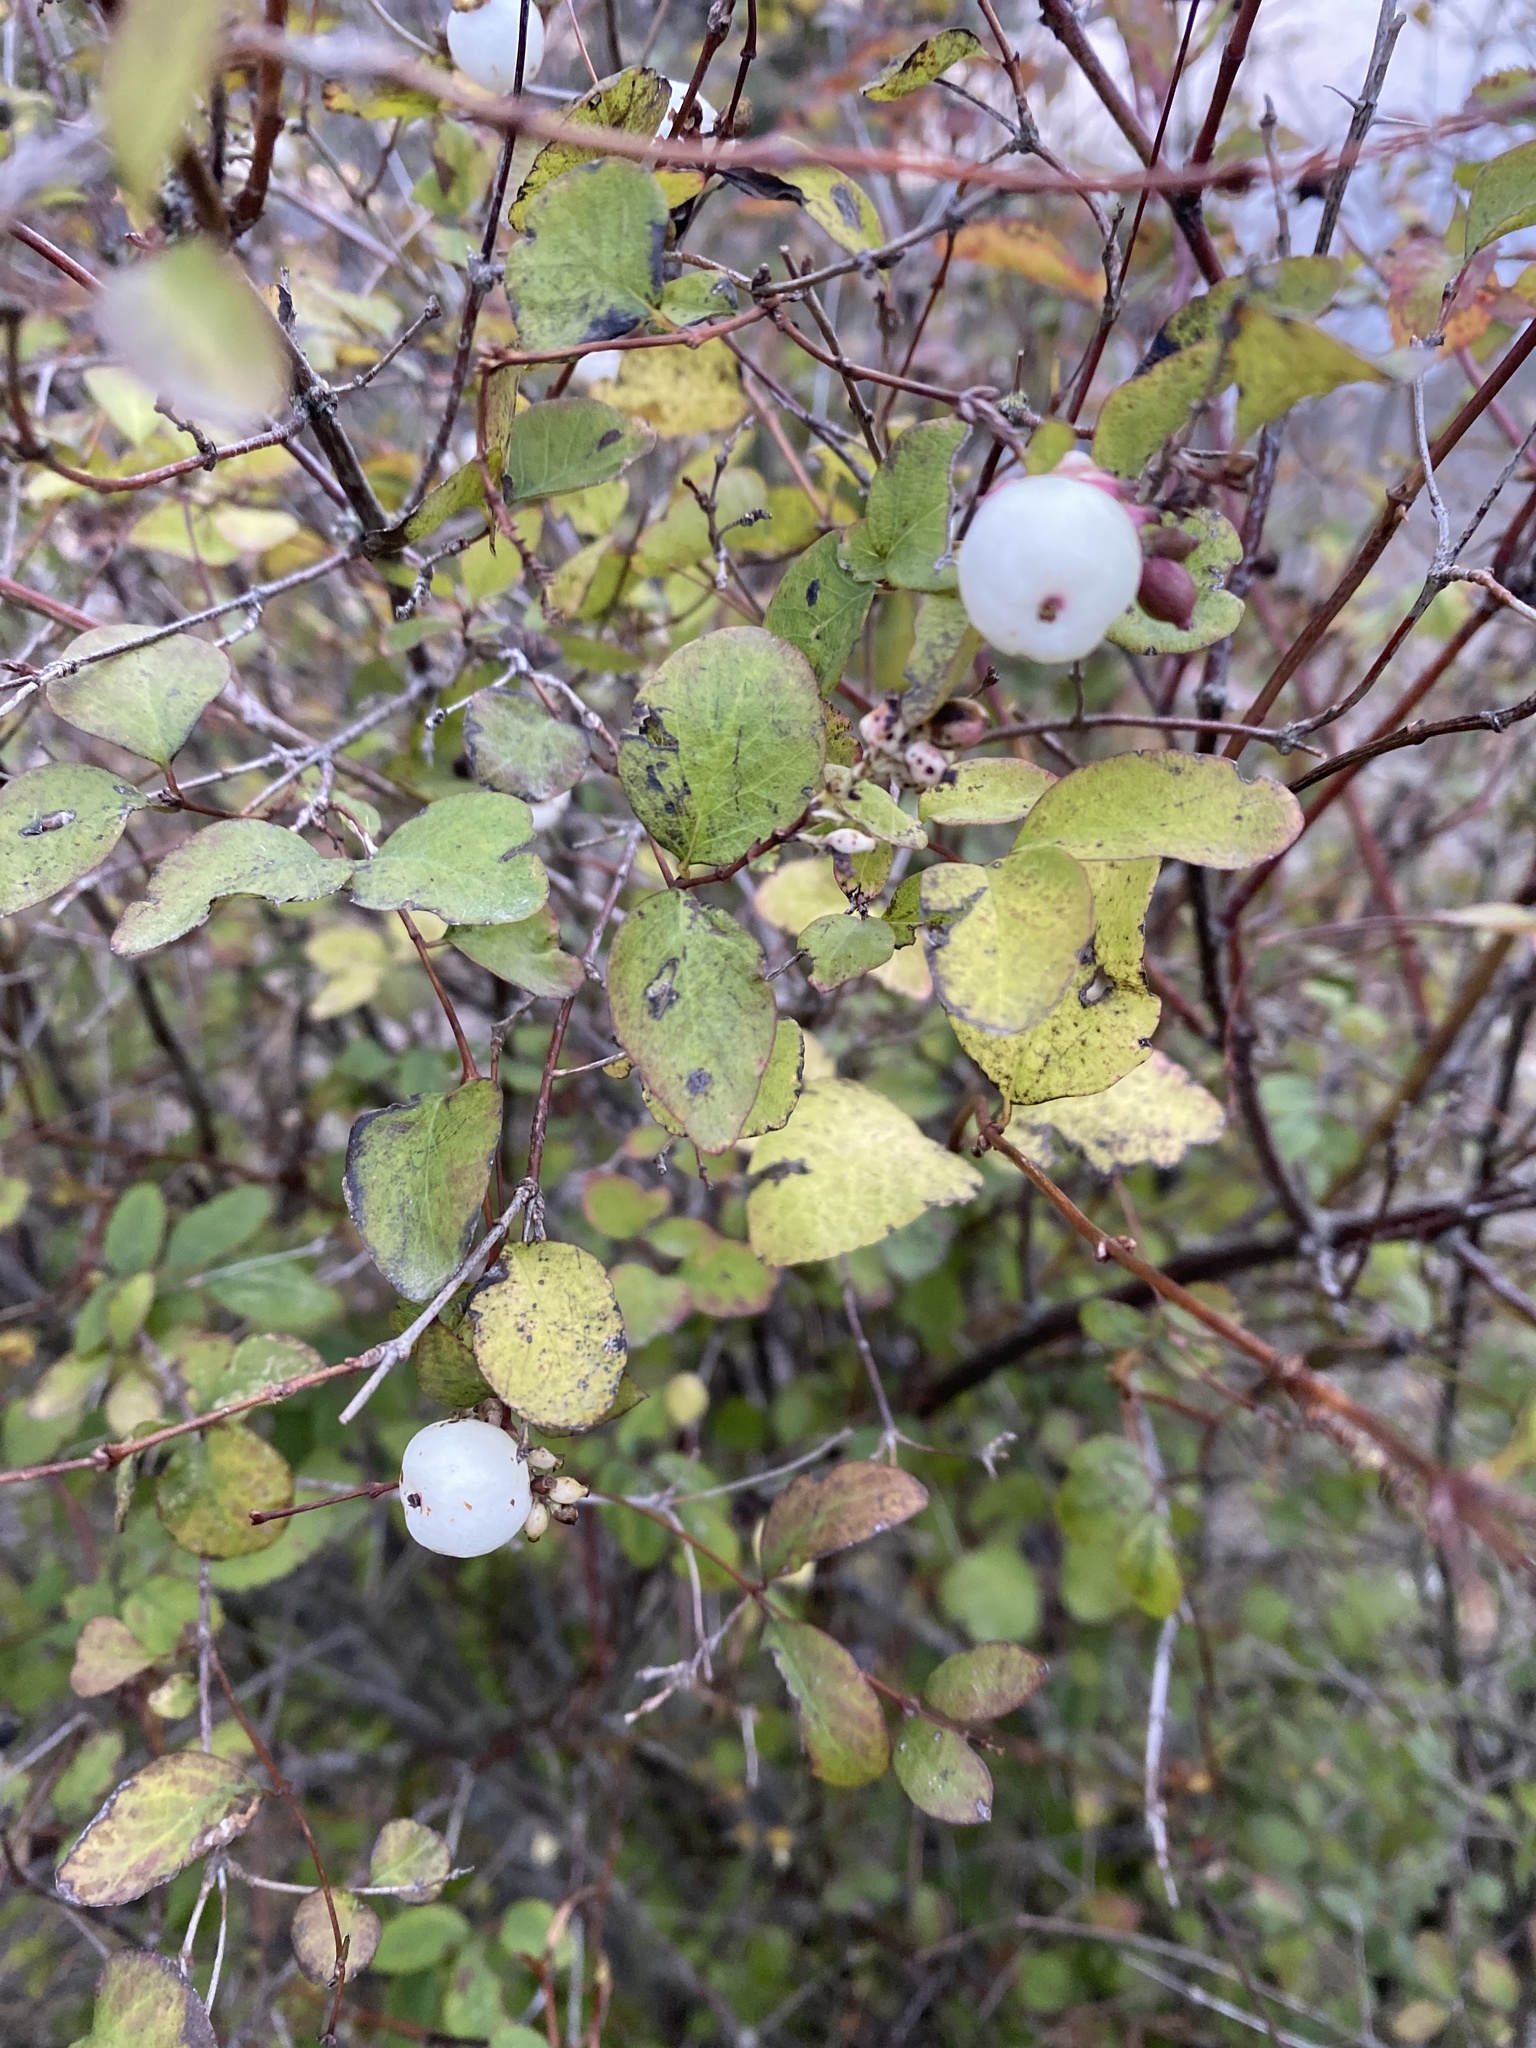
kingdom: Plantae
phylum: Tracheophyta
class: Magnoliopsida
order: Dipsacales
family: Caprifoliaceae
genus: Symphoricarpos
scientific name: Symphoricarpos albus
